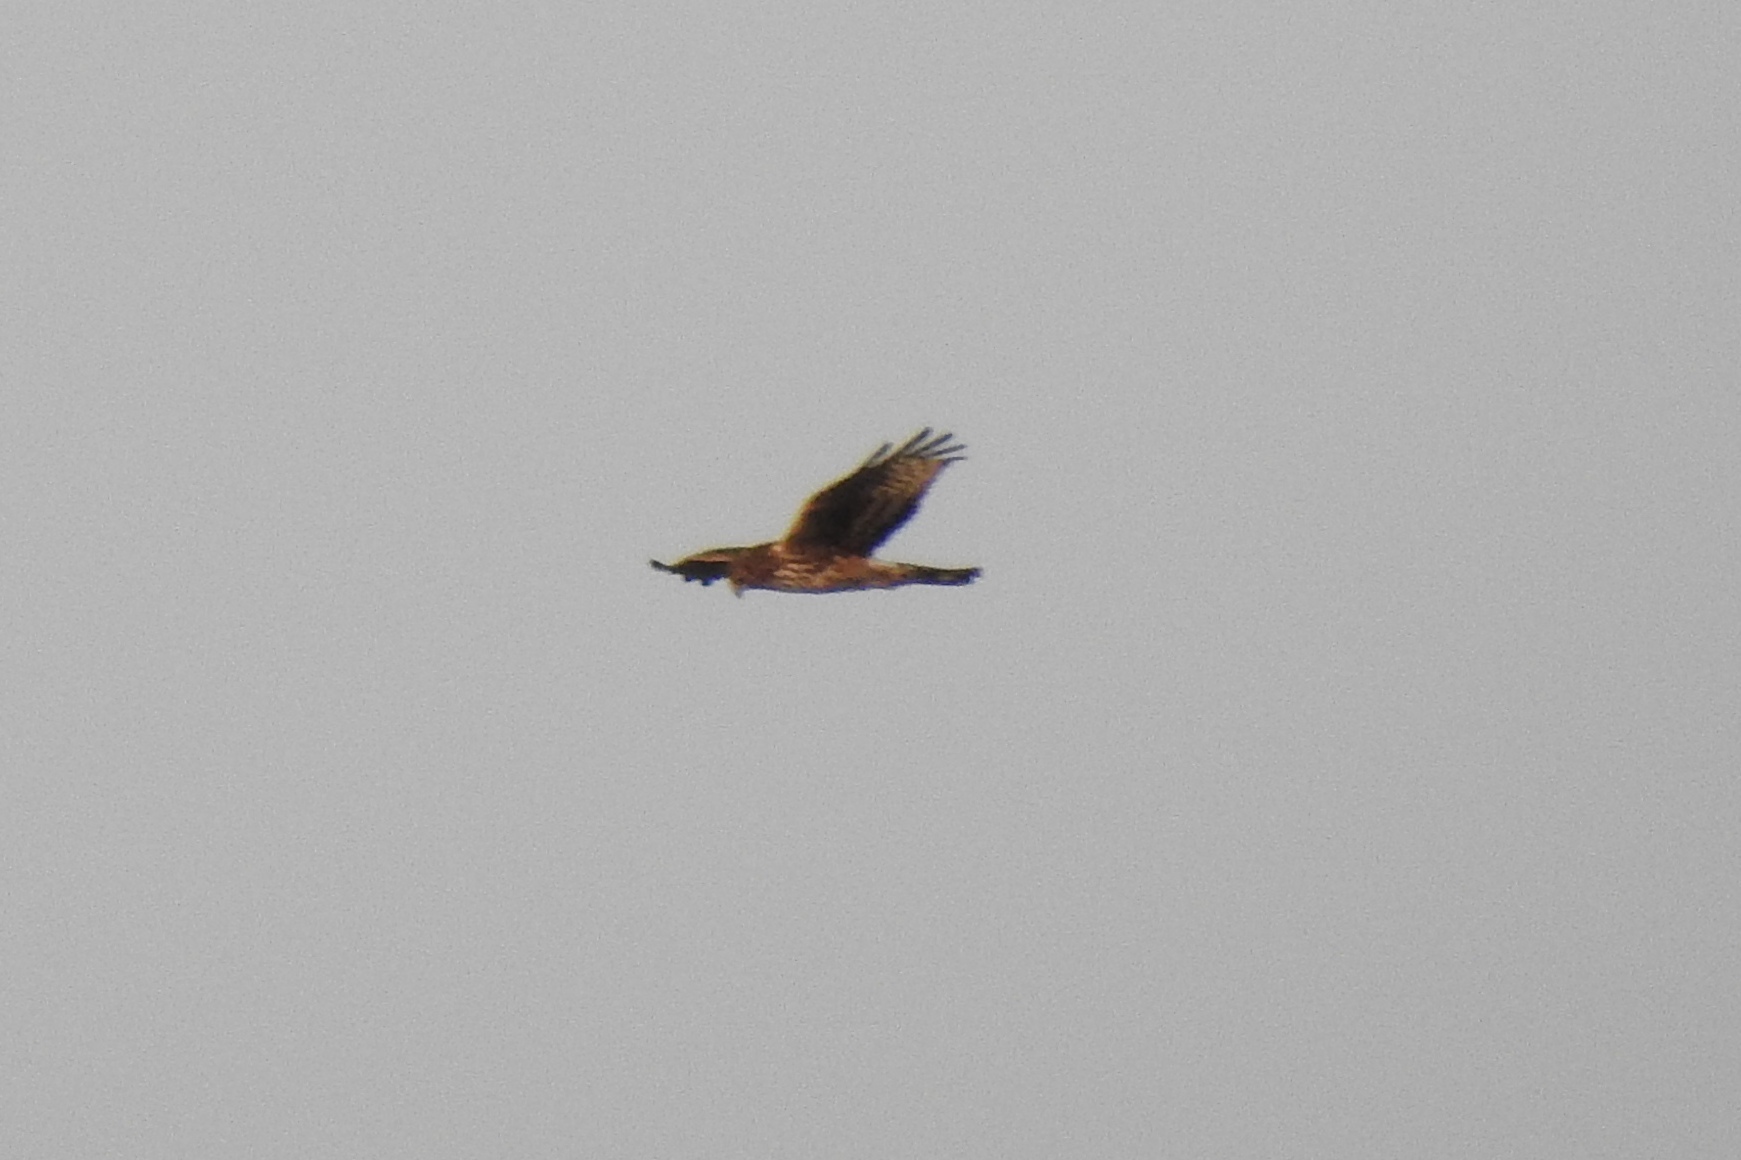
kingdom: Animalia
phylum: Chordata
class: Aves
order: Accipitriformes
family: Accipitridae
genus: Circus
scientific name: Circus cyaneus
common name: Hen harrier
